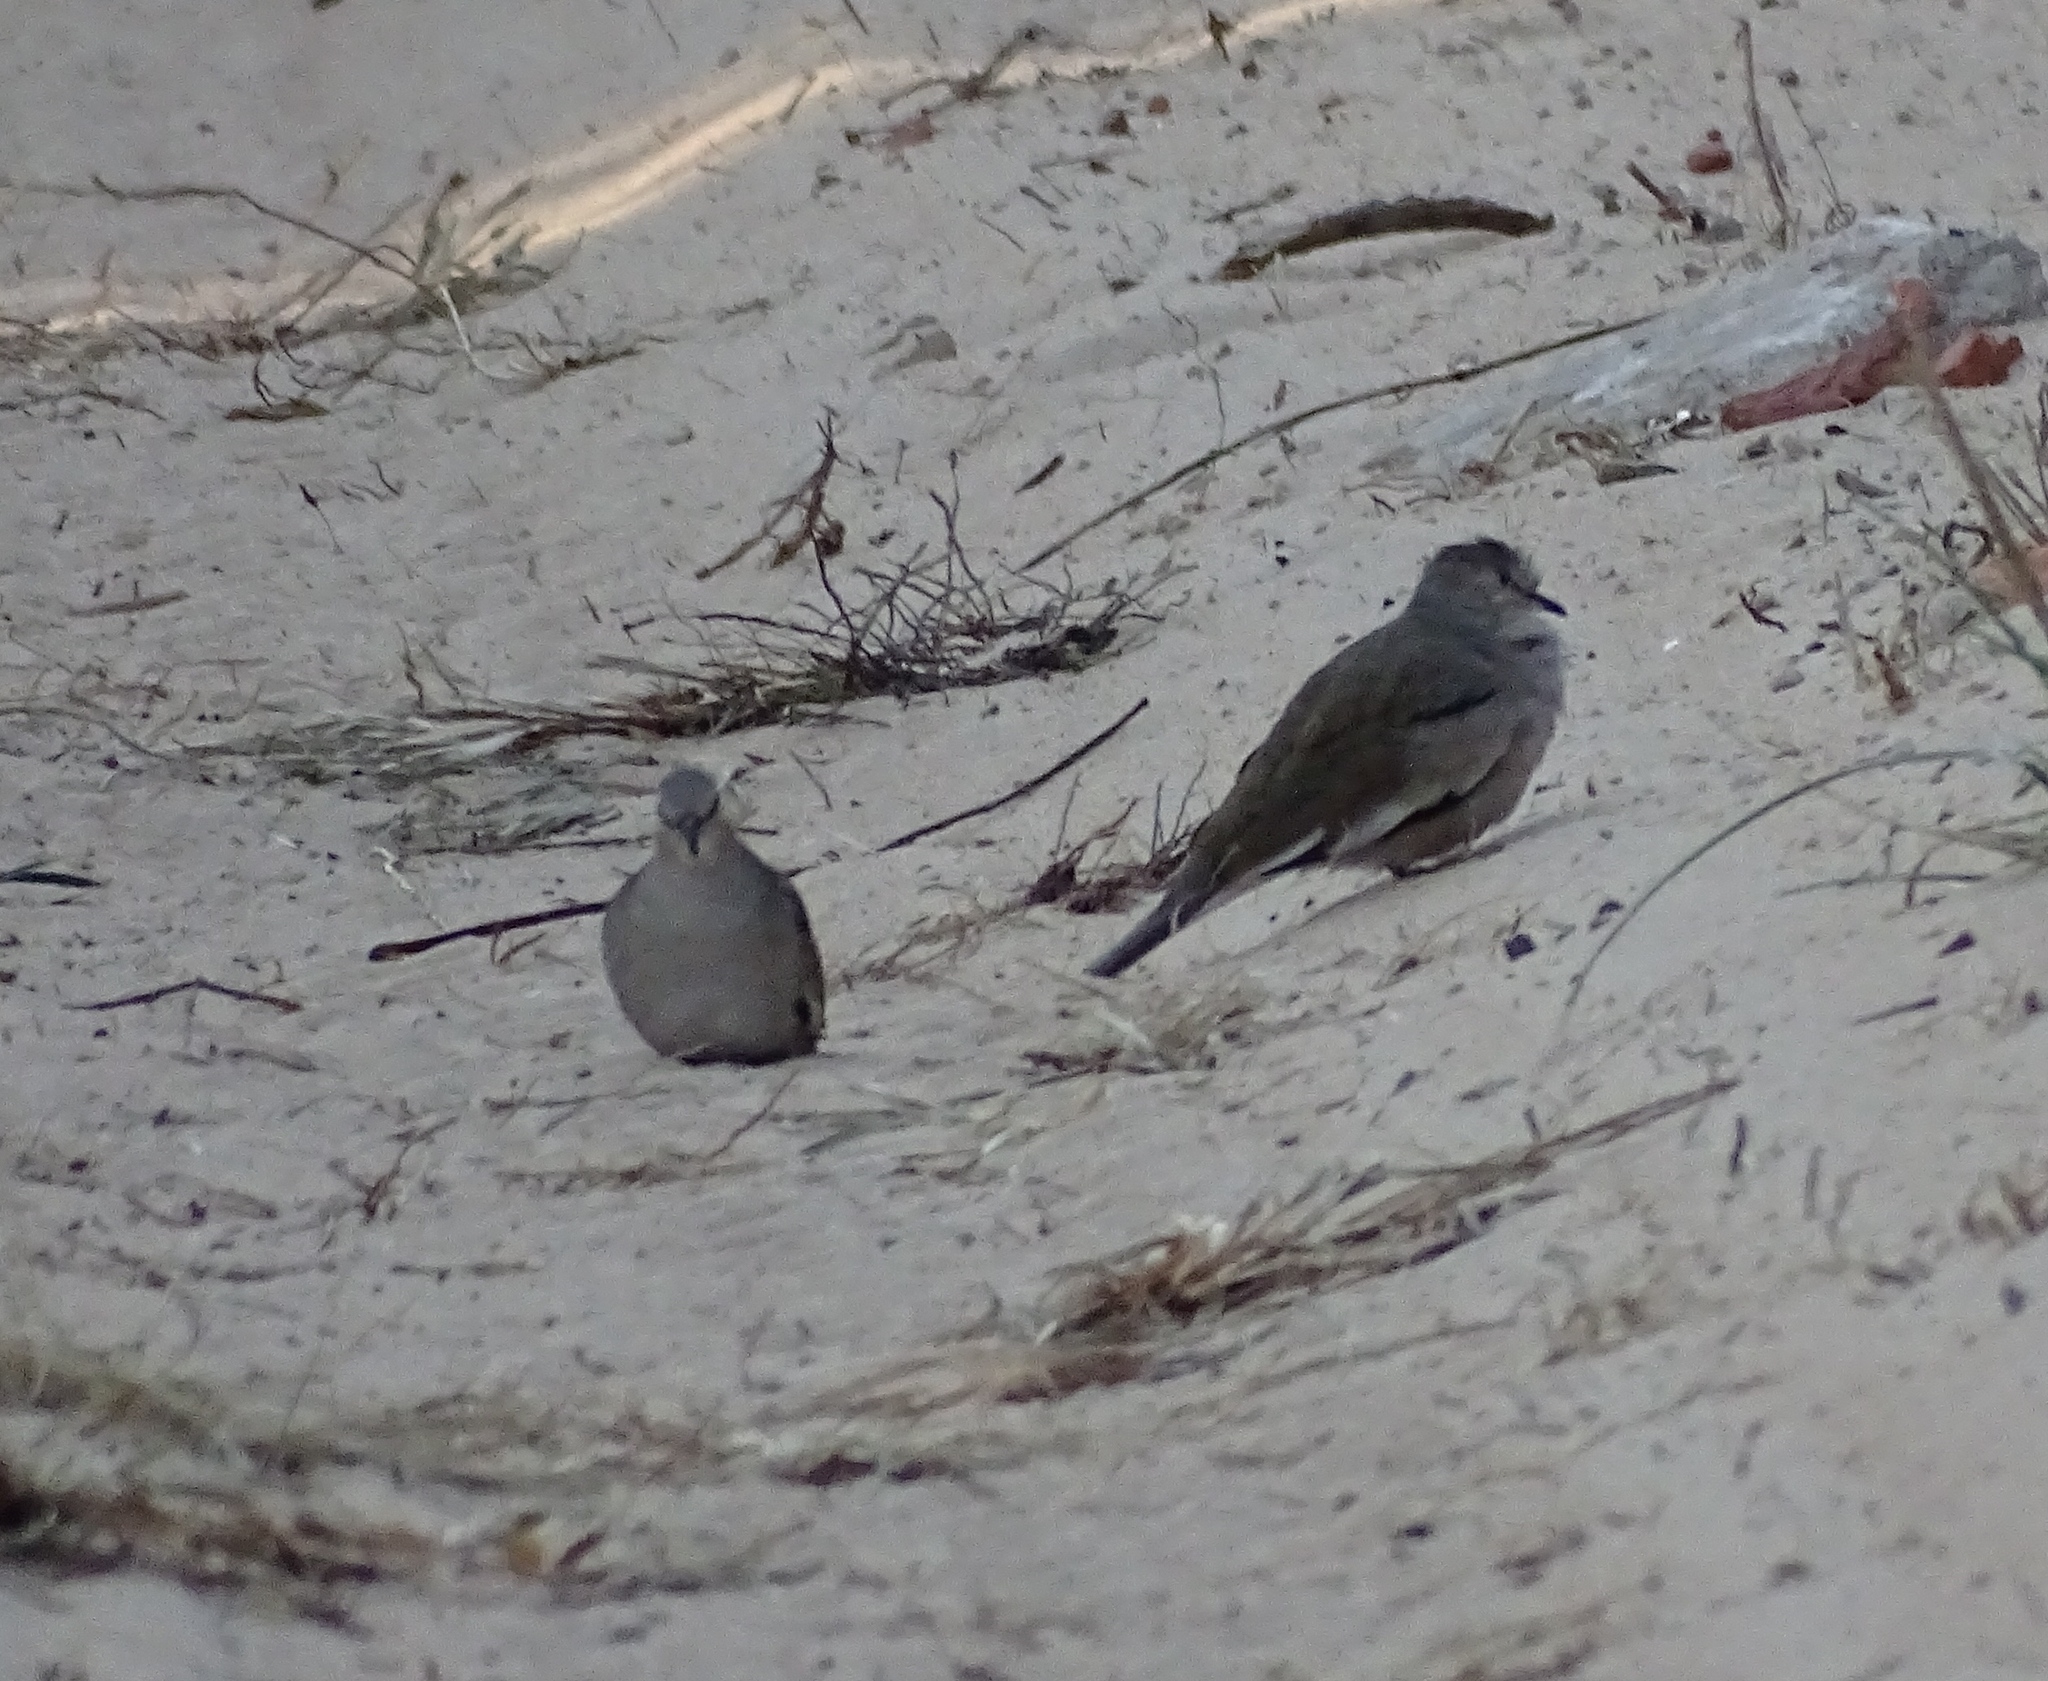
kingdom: Animalia
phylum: Chordata
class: Aves
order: Columbiformes
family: Columbidae
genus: Columbina
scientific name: Columbina picui
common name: Picui ground dove
